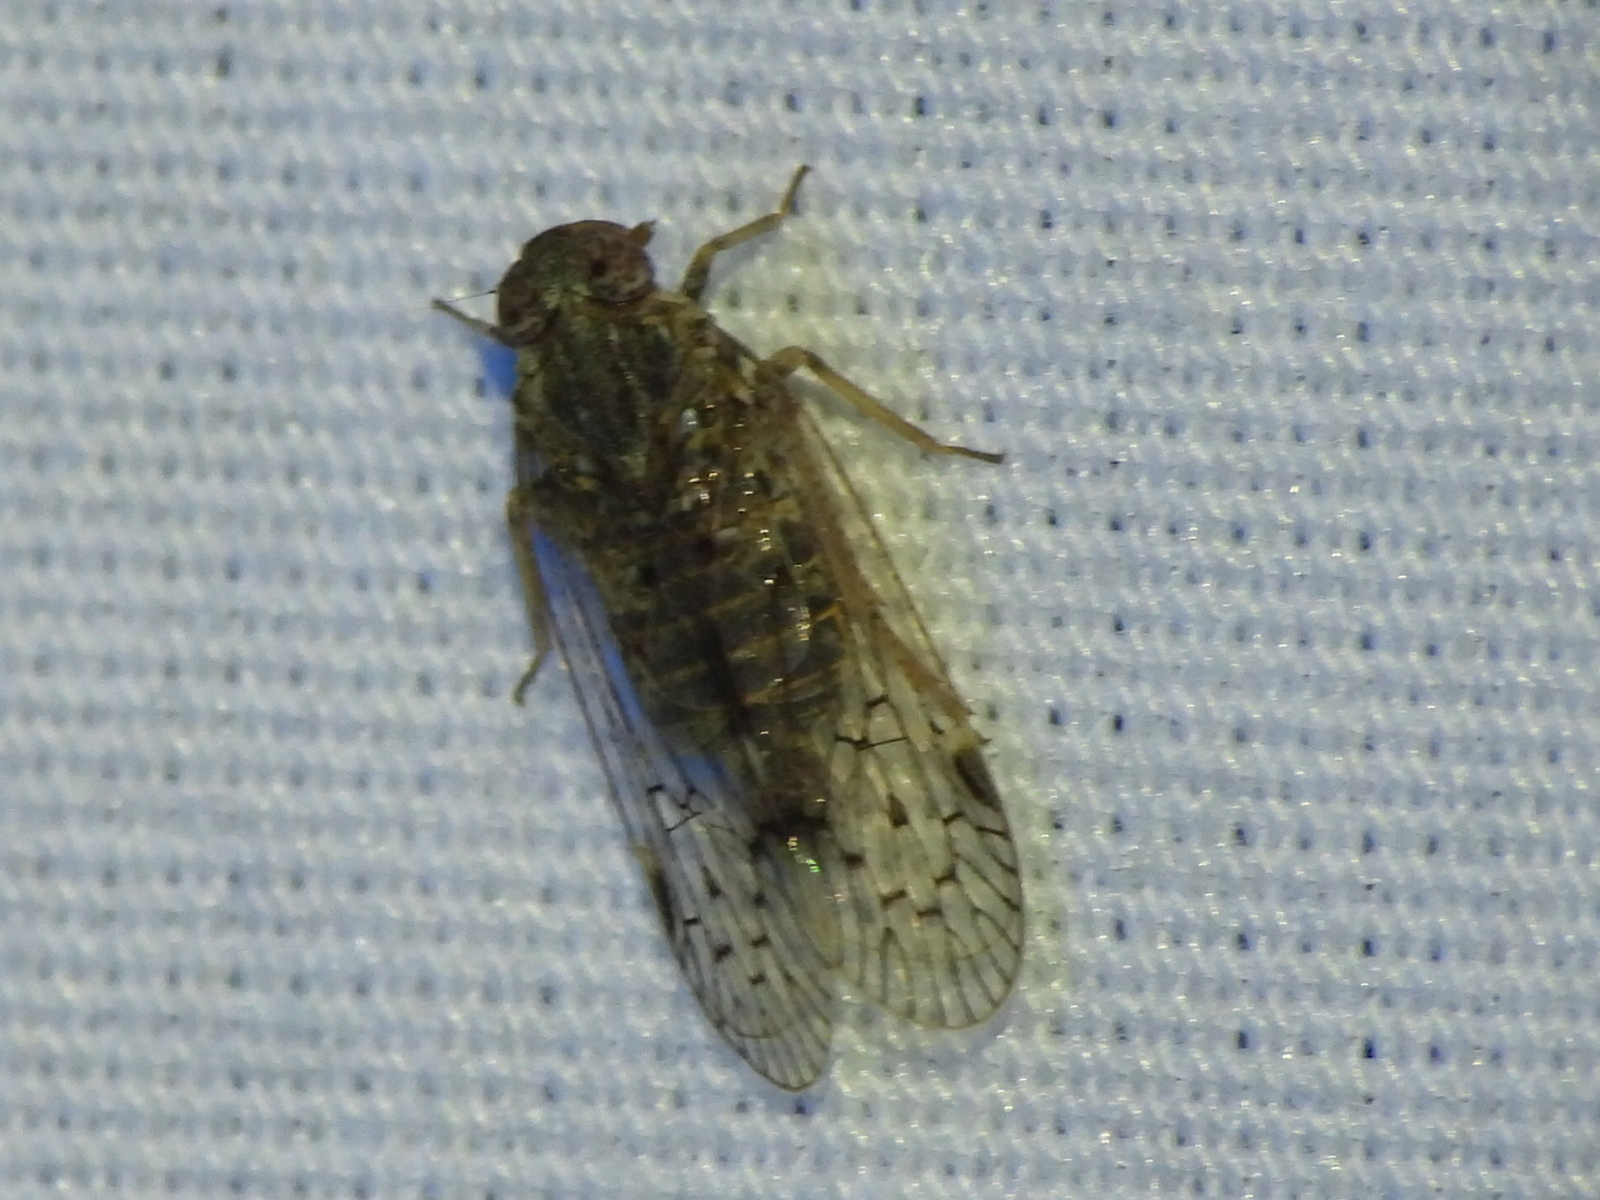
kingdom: Animalia
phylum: Arthropoda
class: Insecta
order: Hemiptera
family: Cixiidae
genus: Melanoliarus
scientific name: Melanoliarus aridus
